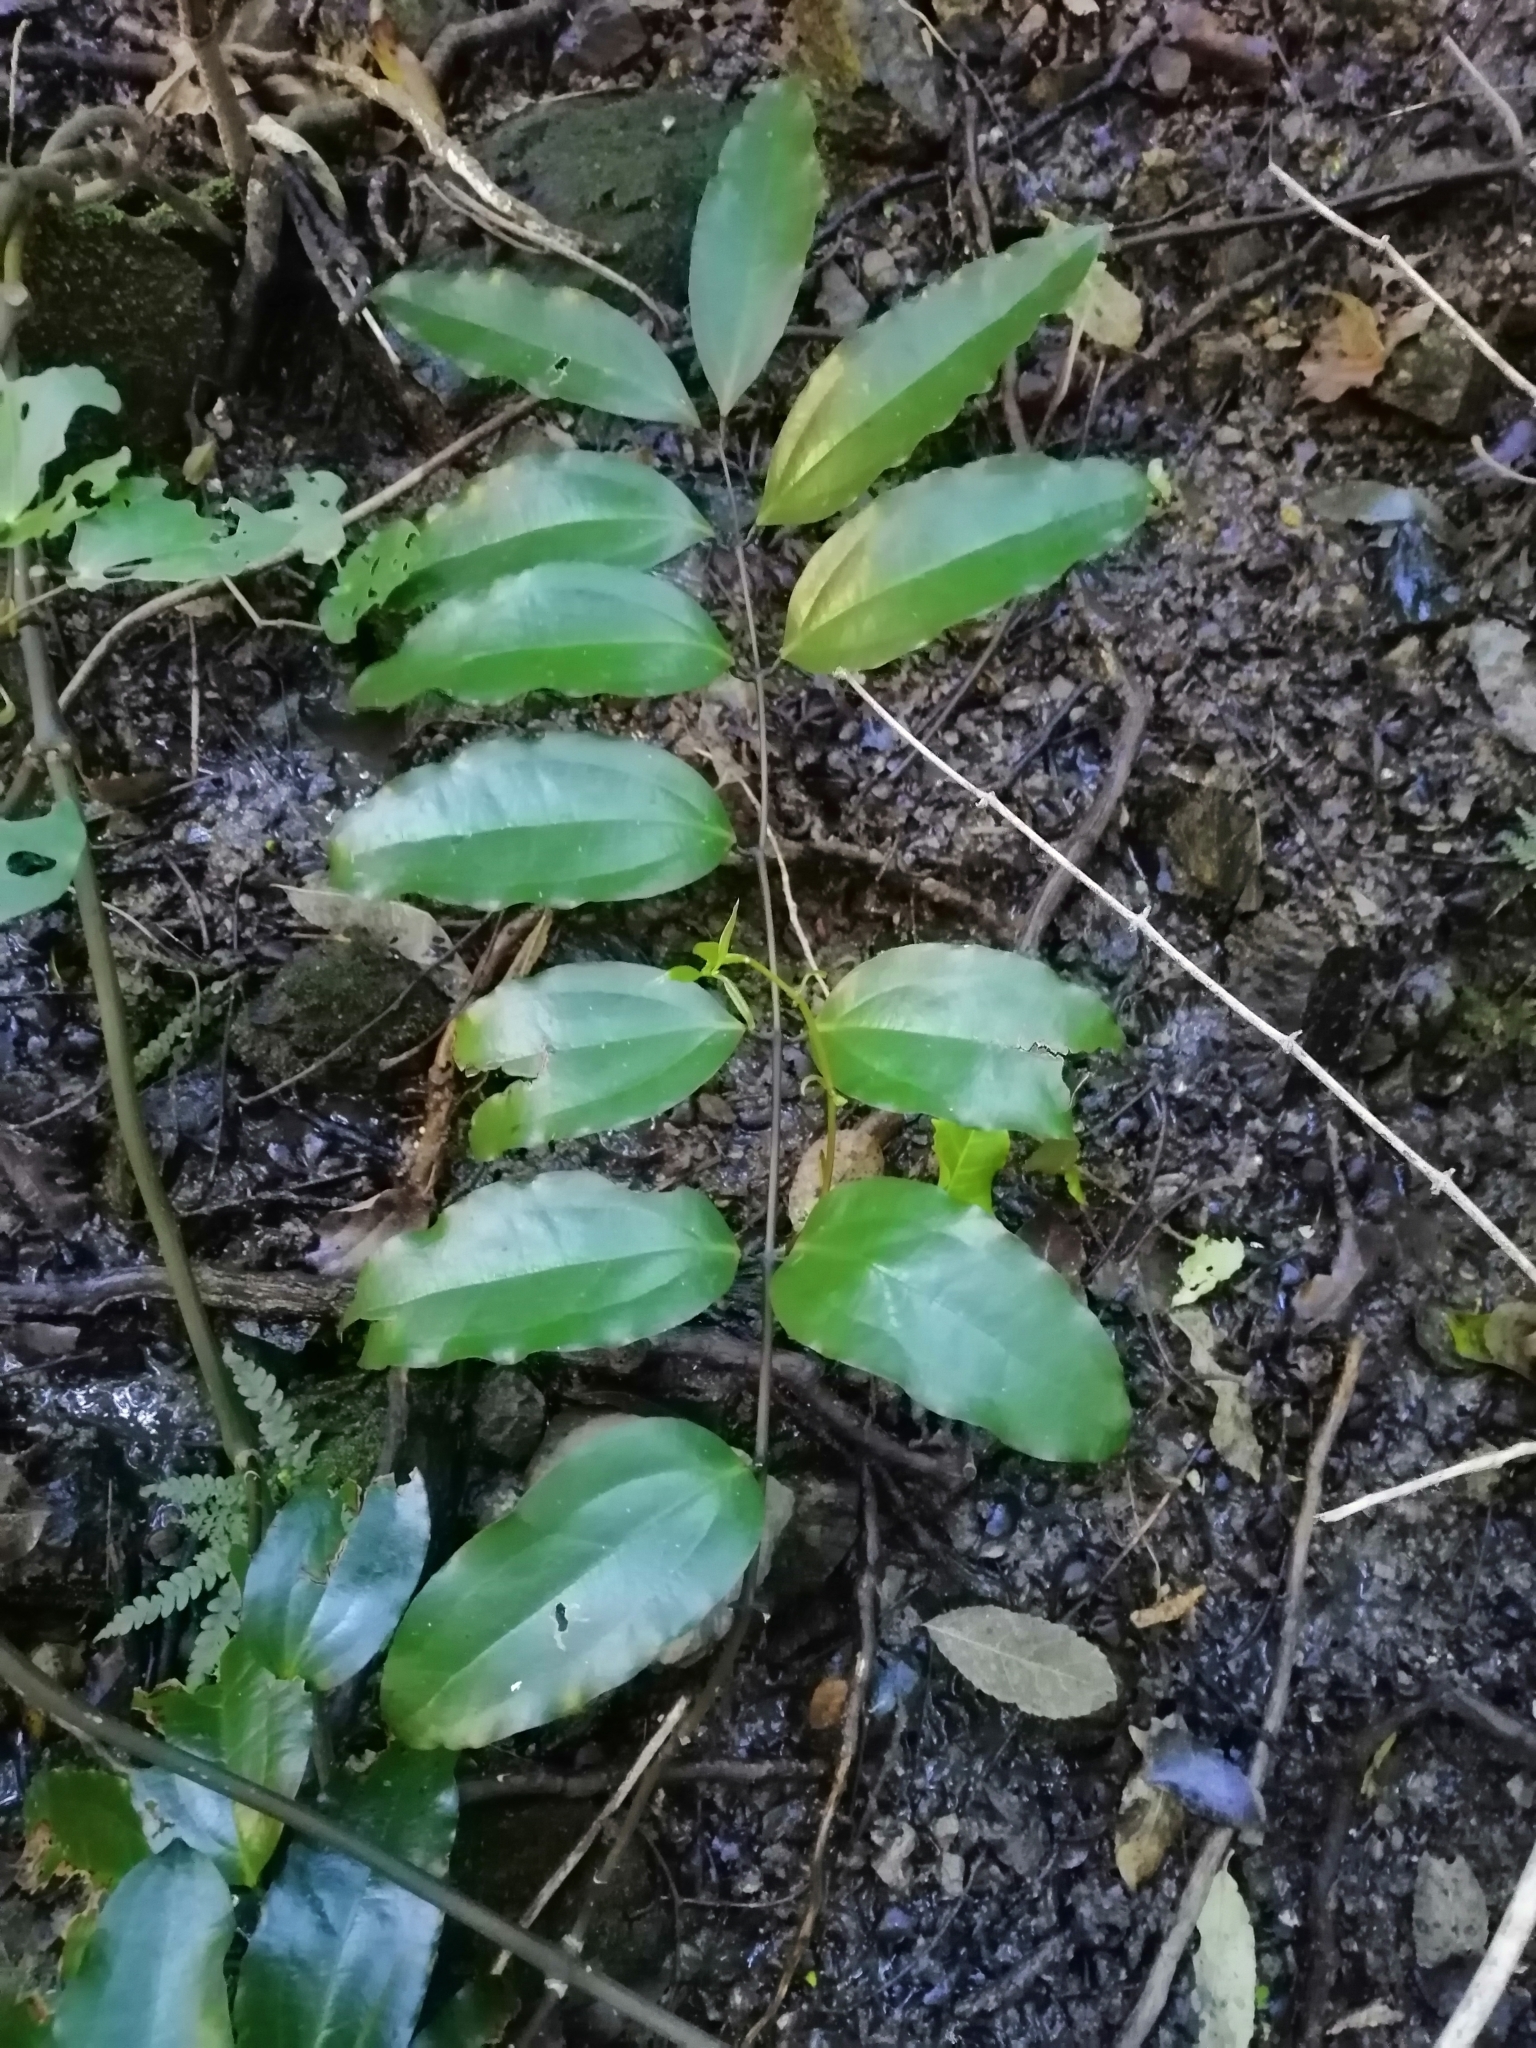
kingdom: Plantae
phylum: Tracheophyta
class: Liliopsida
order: Liliales
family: Ripogonaceae
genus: Ripogonum
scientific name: Ripogonum scandens
